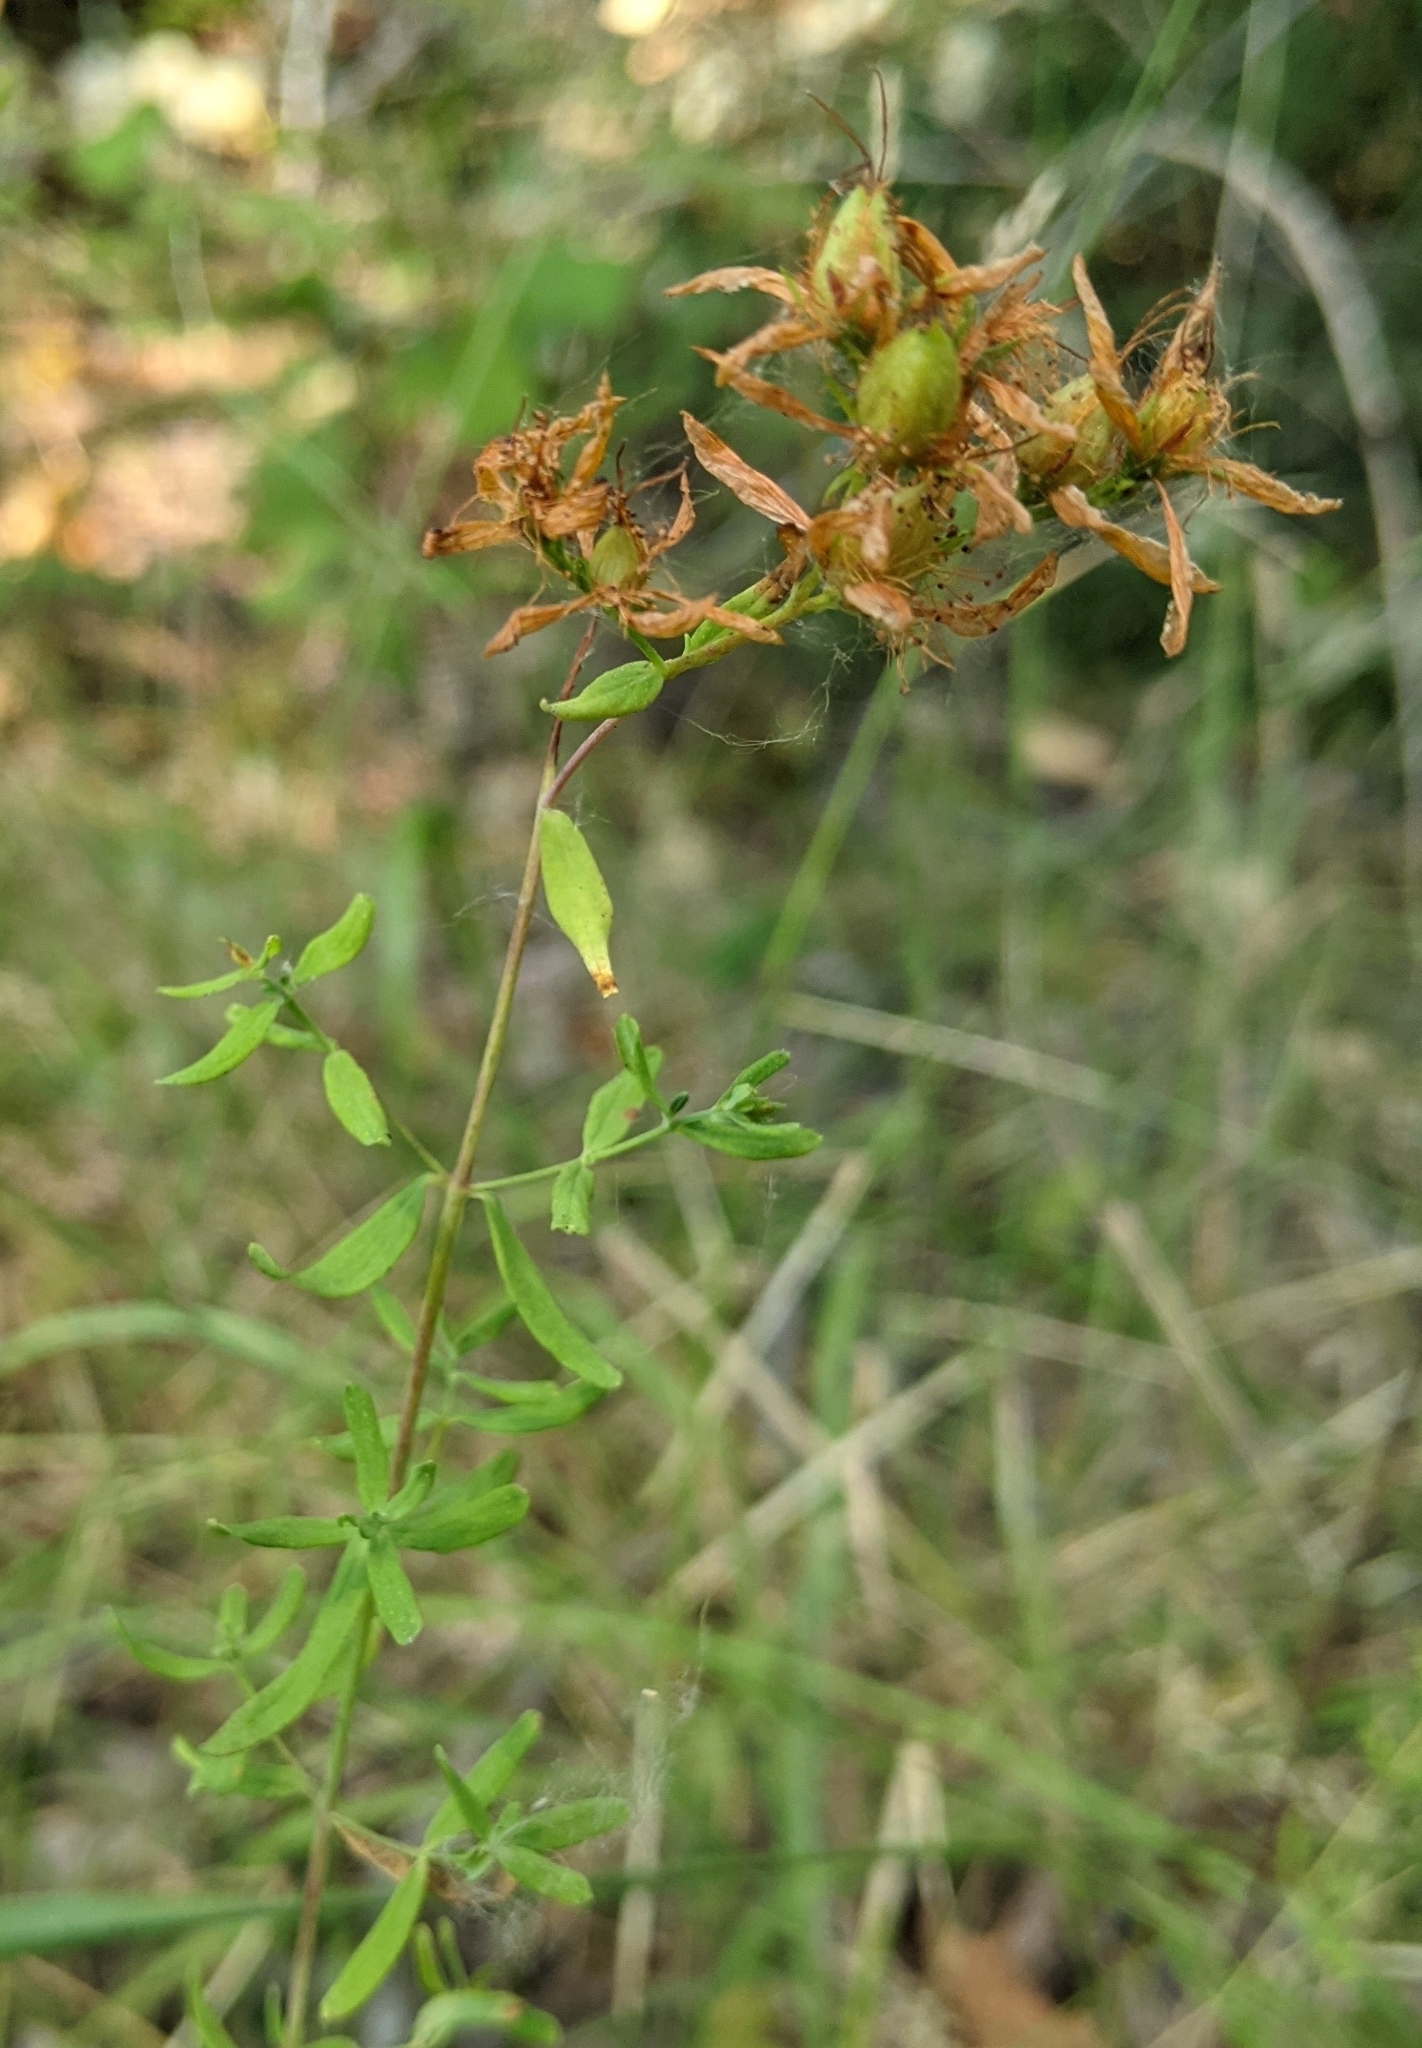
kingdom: Plantae
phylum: Tracheophyta
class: Magnoliopsida
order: Malpighiales
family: Hypericaceae
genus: Hypericum
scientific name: Hypericum perforatum
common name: Common st. johnswort
